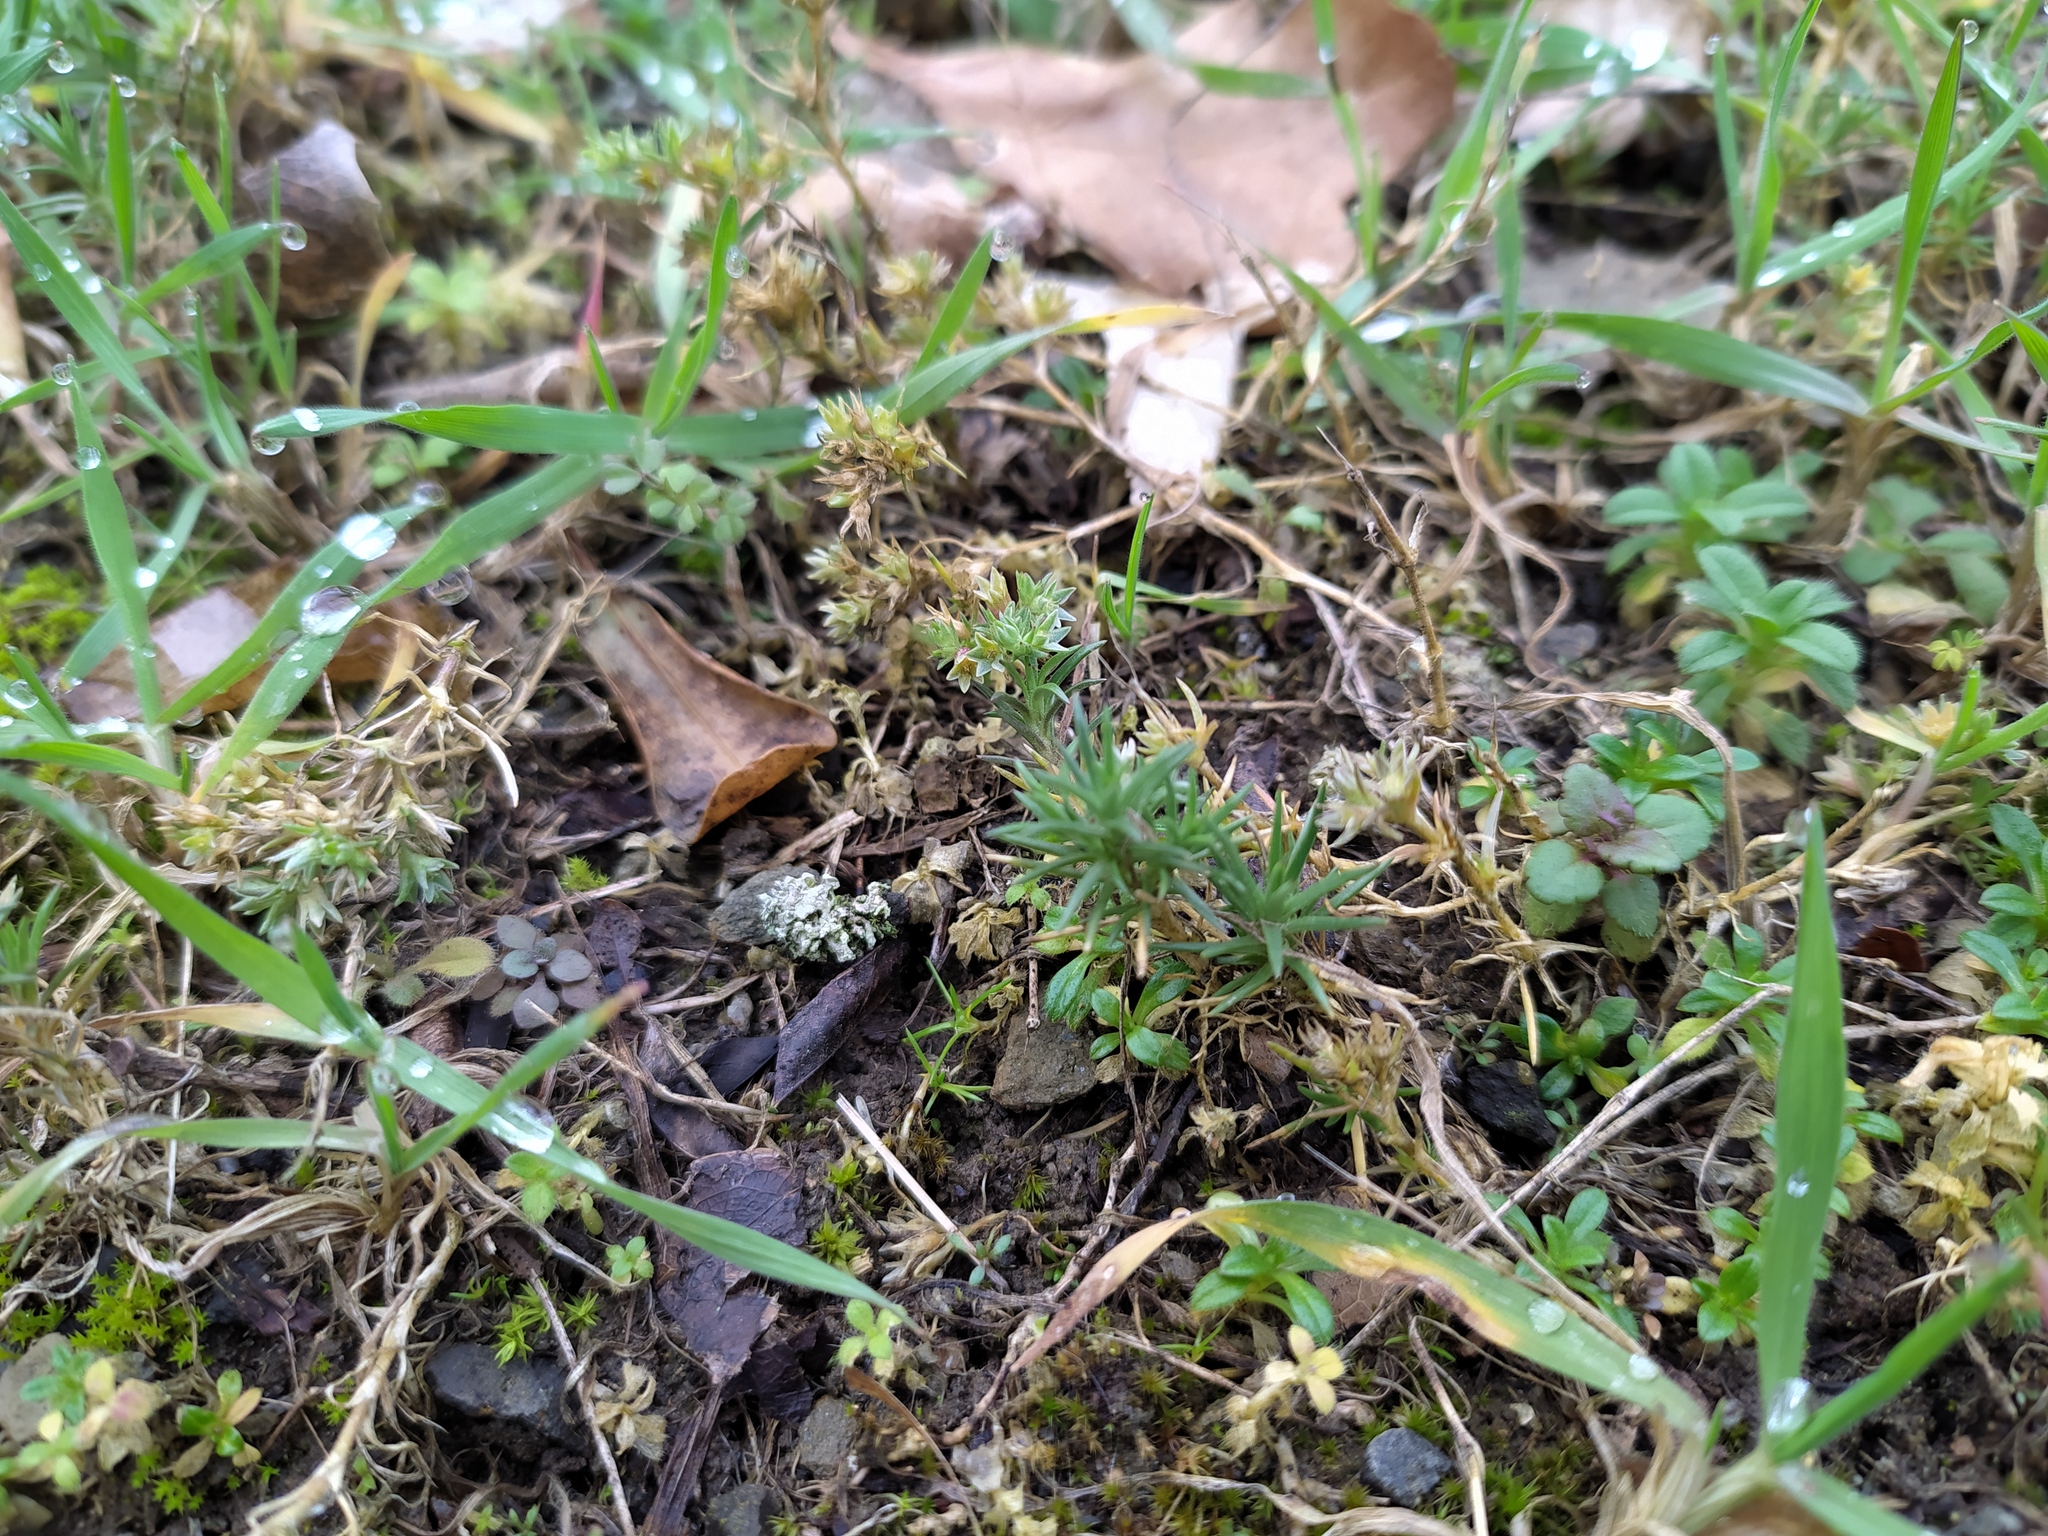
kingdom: Plantae
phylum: Tracheophyta
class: Magnoliopsida
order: Caryophyllales
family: Caryophyllaceae
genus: Scleranthus
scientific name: Scleranthus annuus
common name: Annual knawel
